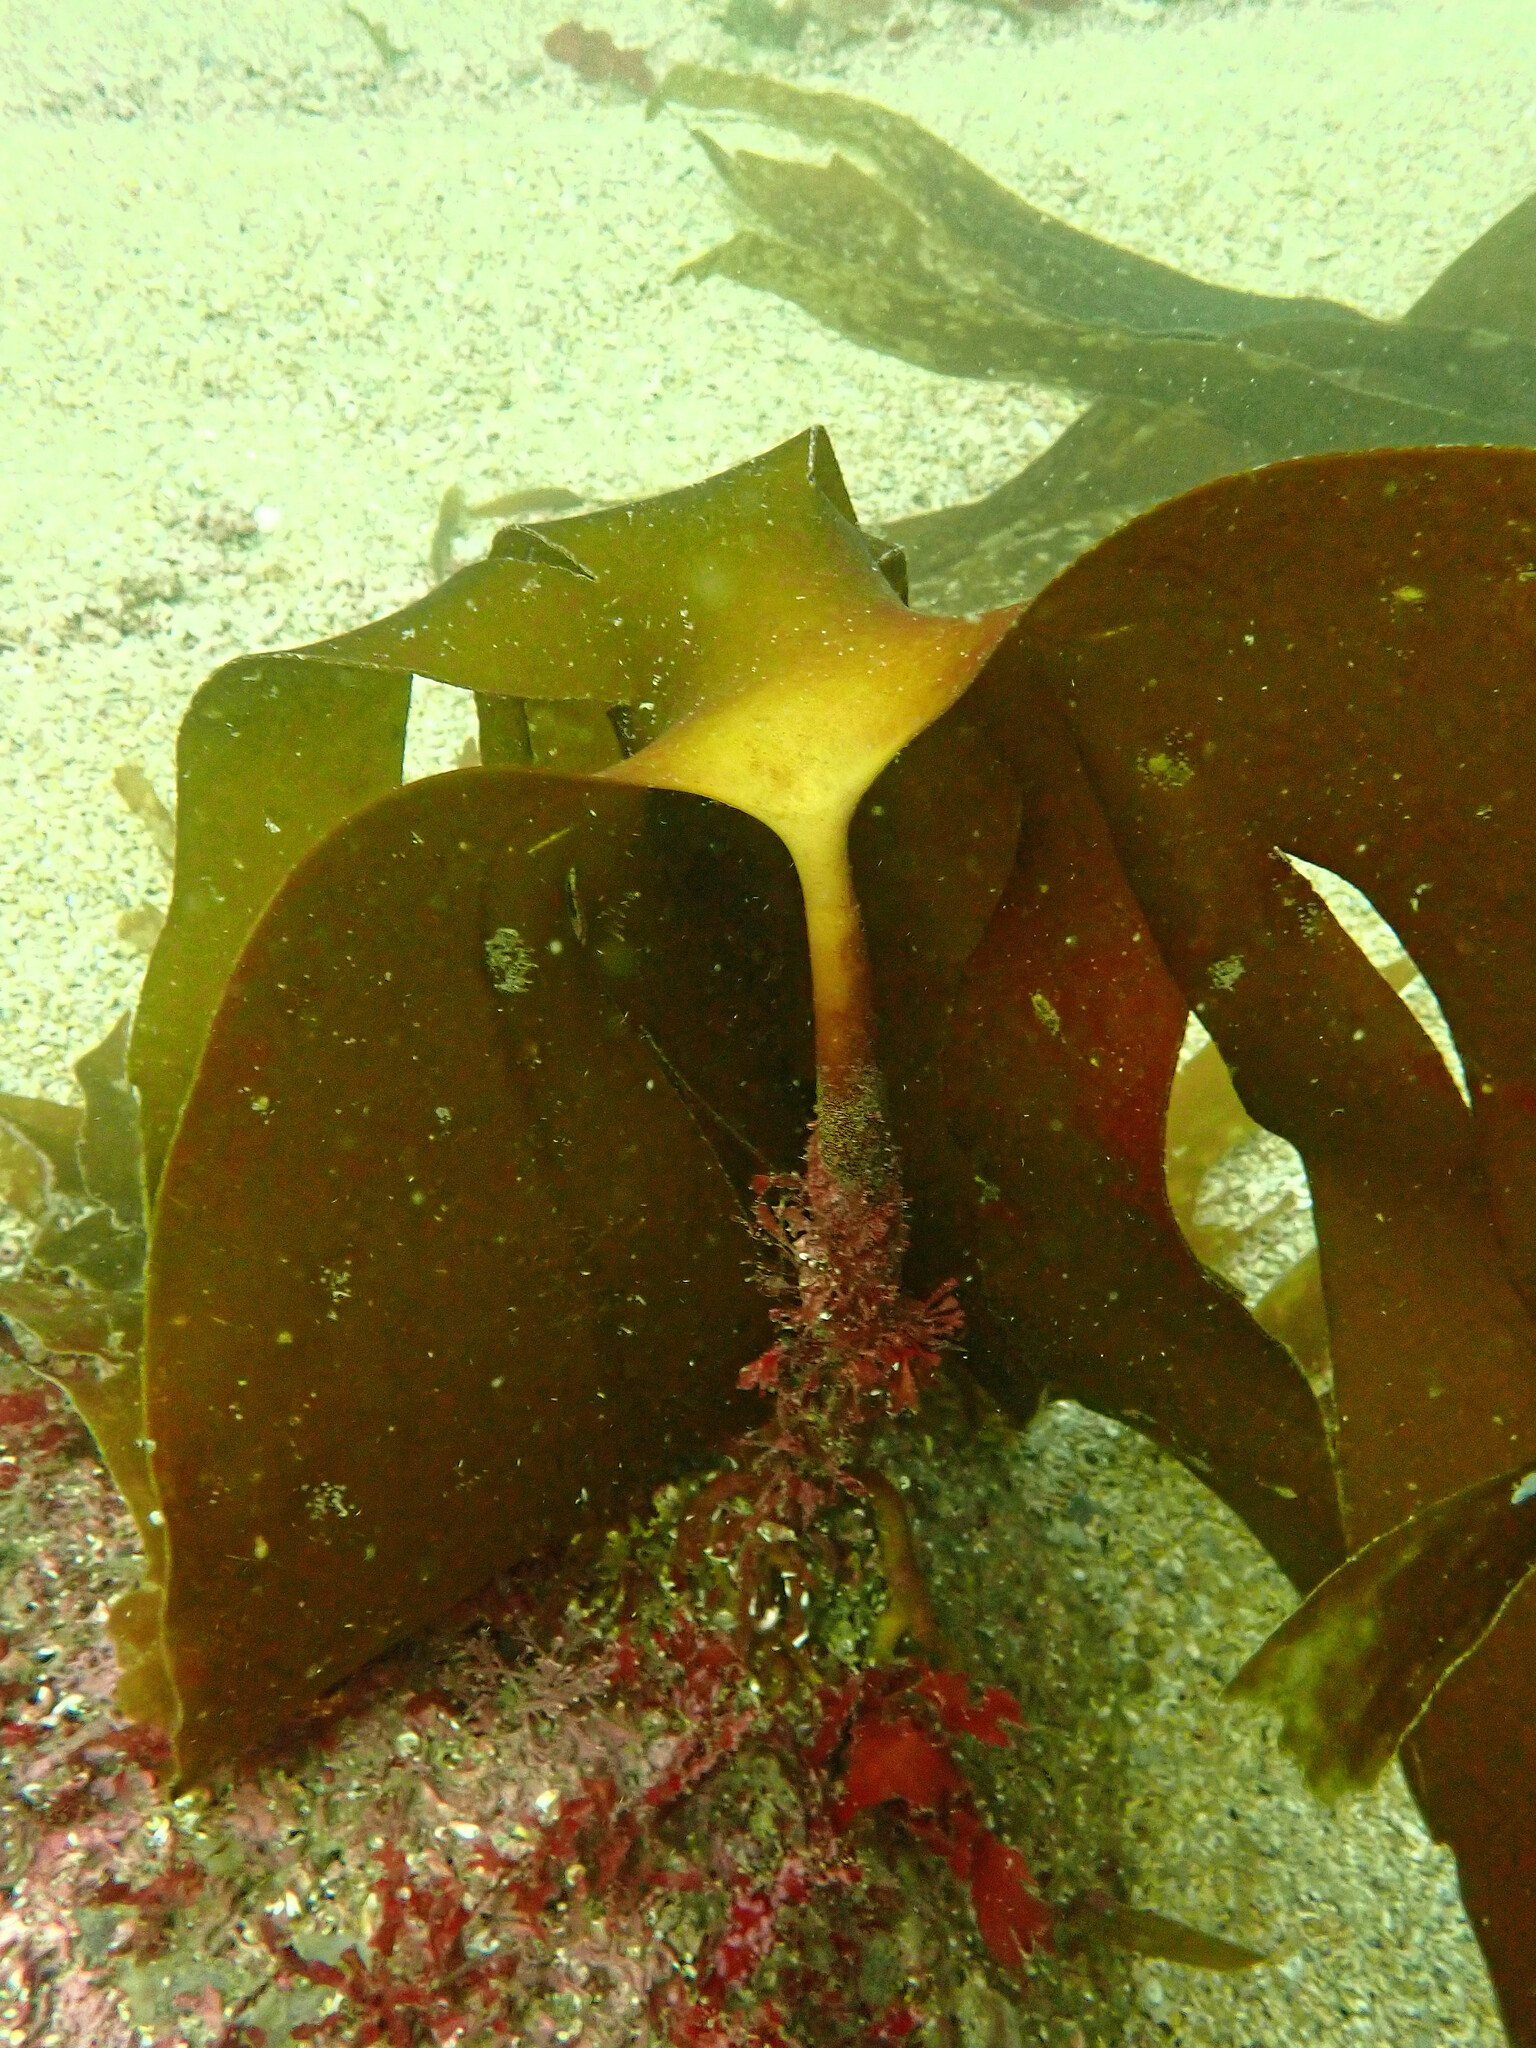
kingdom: Chromista
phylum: Ochrophyta
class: Phaeophyceae
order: Laminariales
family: Laminariaceae
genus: Laminaria
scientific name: Laminaria hyperborea
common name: Cuvie
